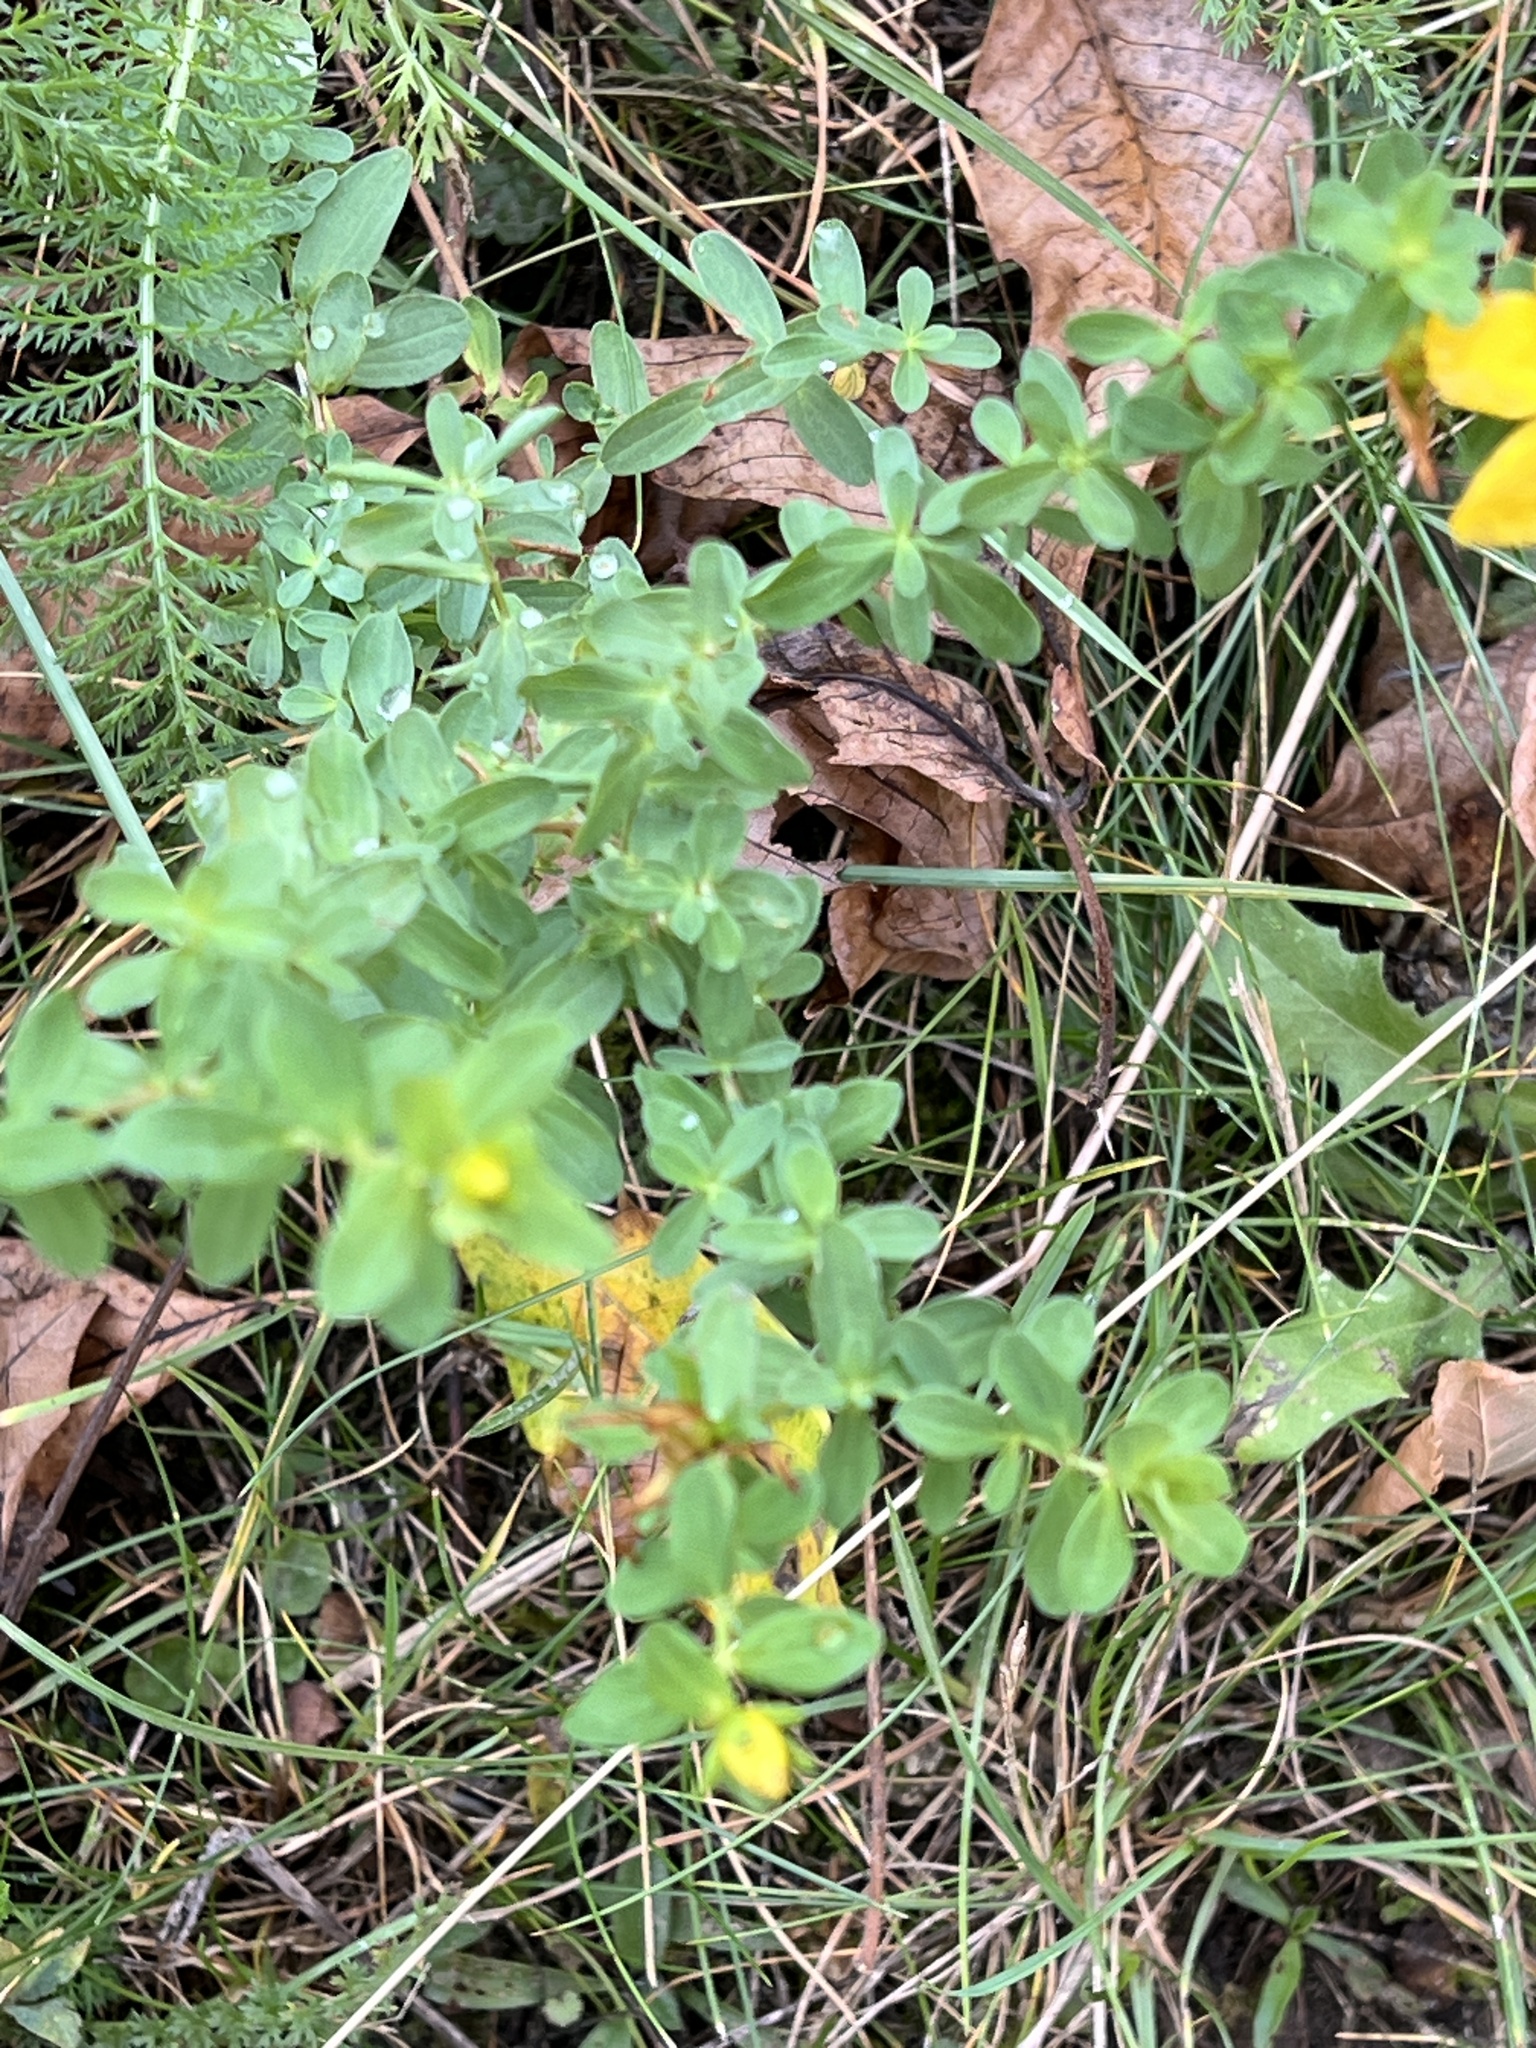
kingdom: Plantae
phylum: Tracheophyta
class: Magnoliopsida
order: Malpighiales
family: Hypericaceae
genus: Hypericum
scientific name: Hypericum perforatum
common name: Common st. johnswort
